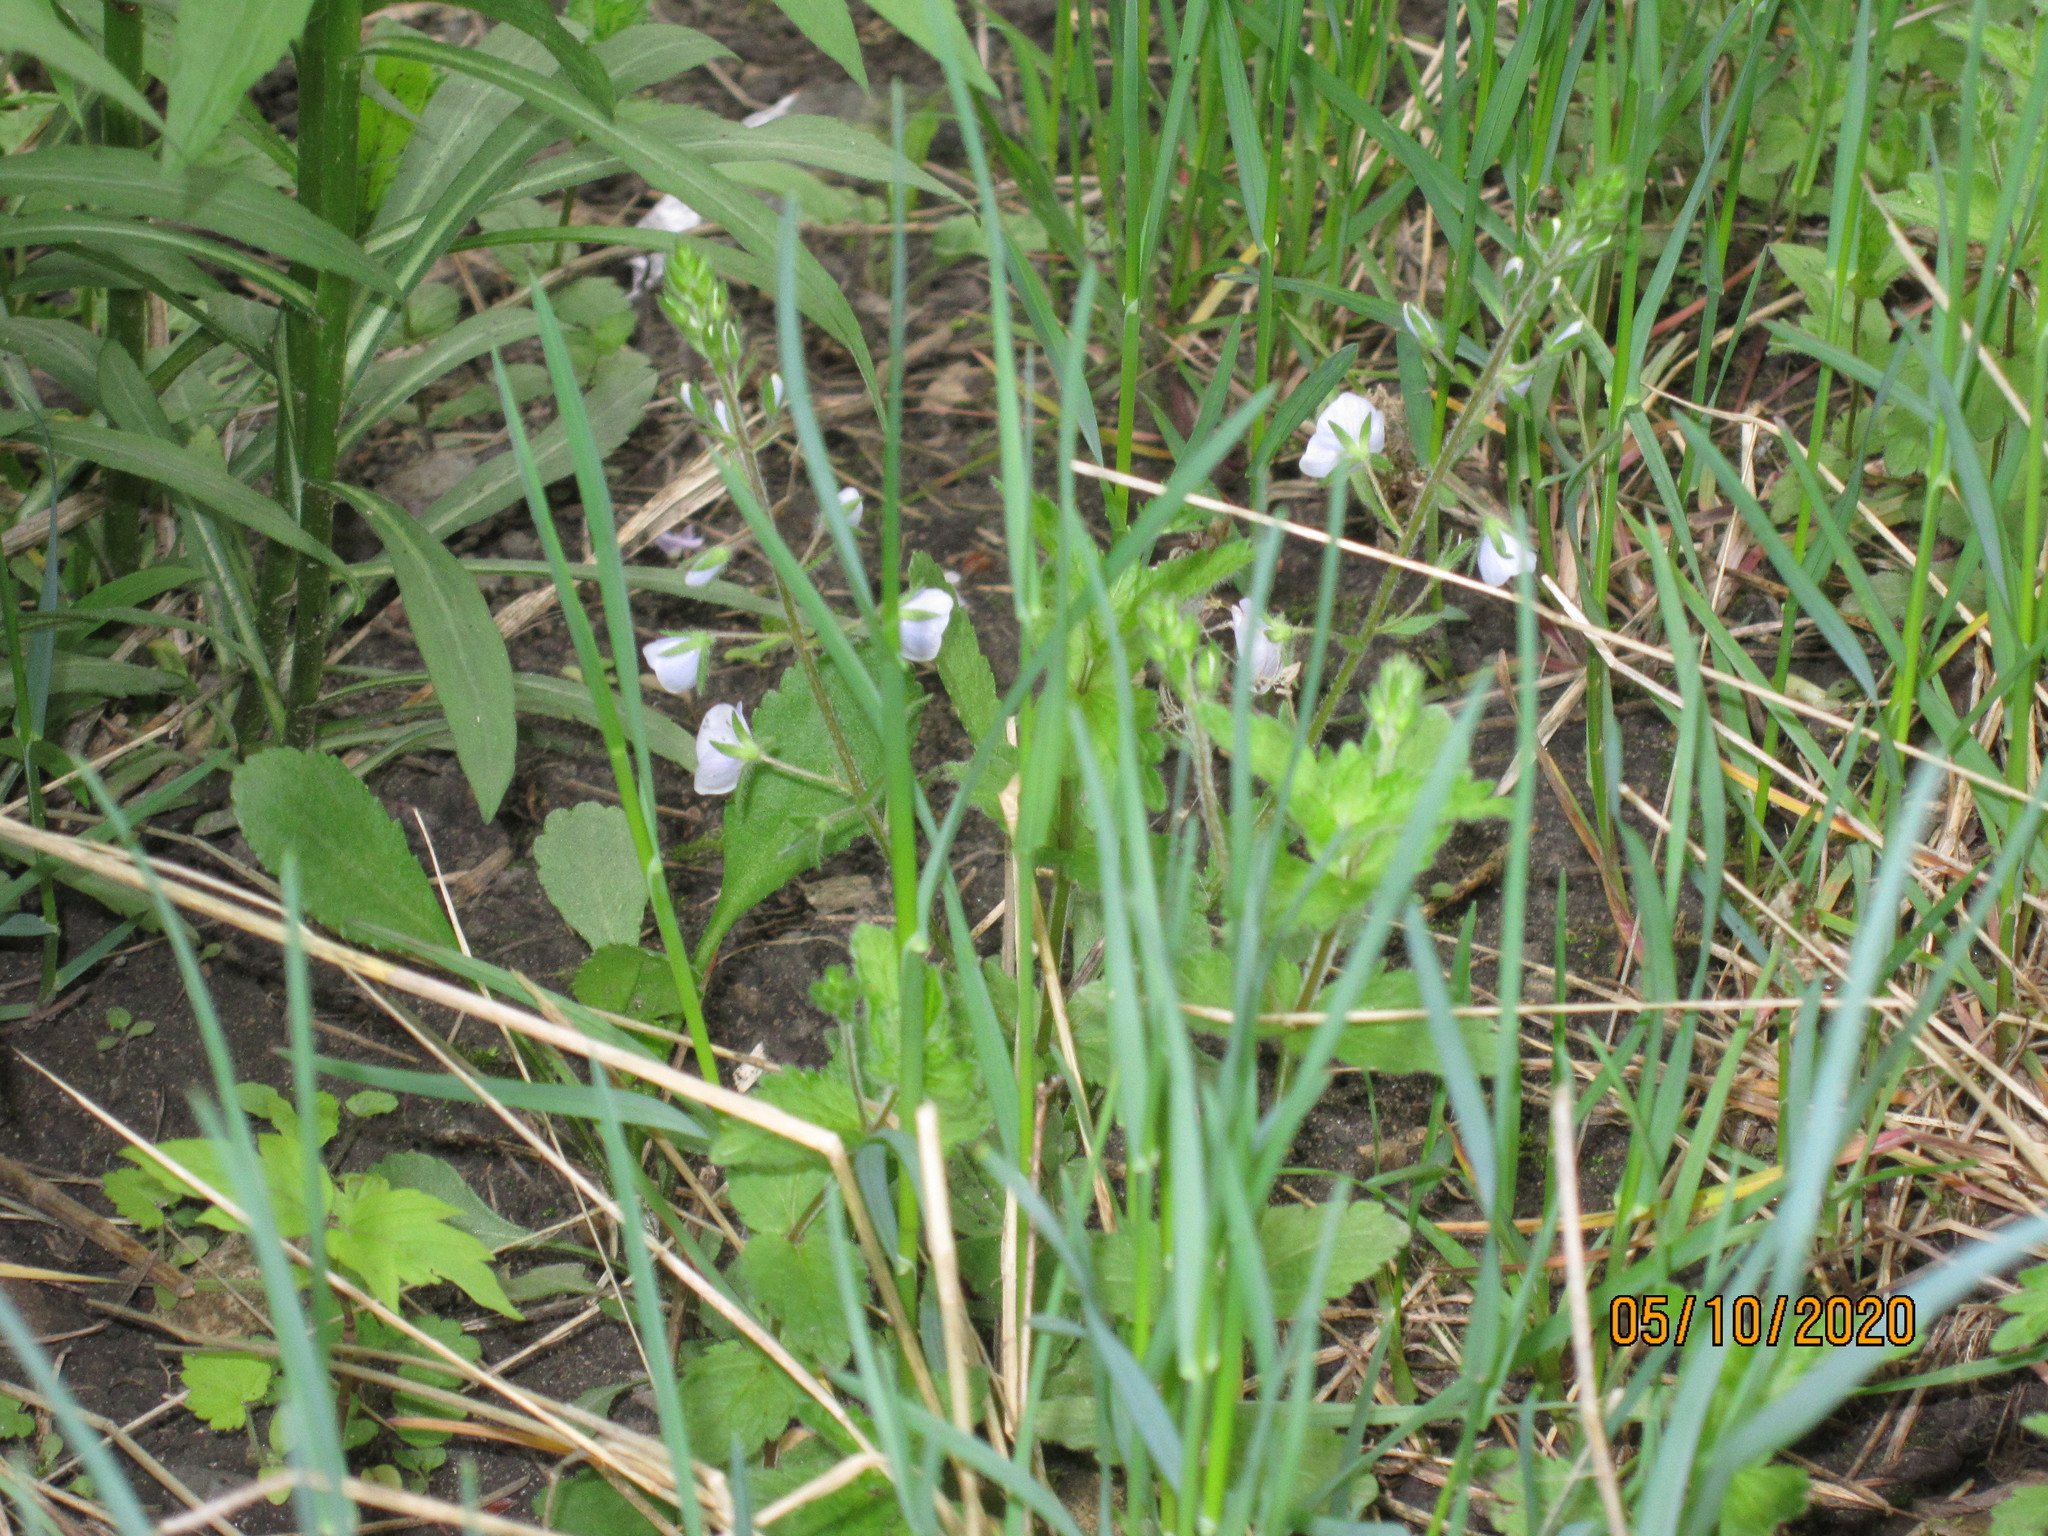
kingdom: Plantae
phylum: Tracheophyta
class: Magnoliopsida
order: Lamiales
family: Plantaginaceae
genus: Veronica
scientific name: Veronica chamaedrys
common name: Germander speedwell
